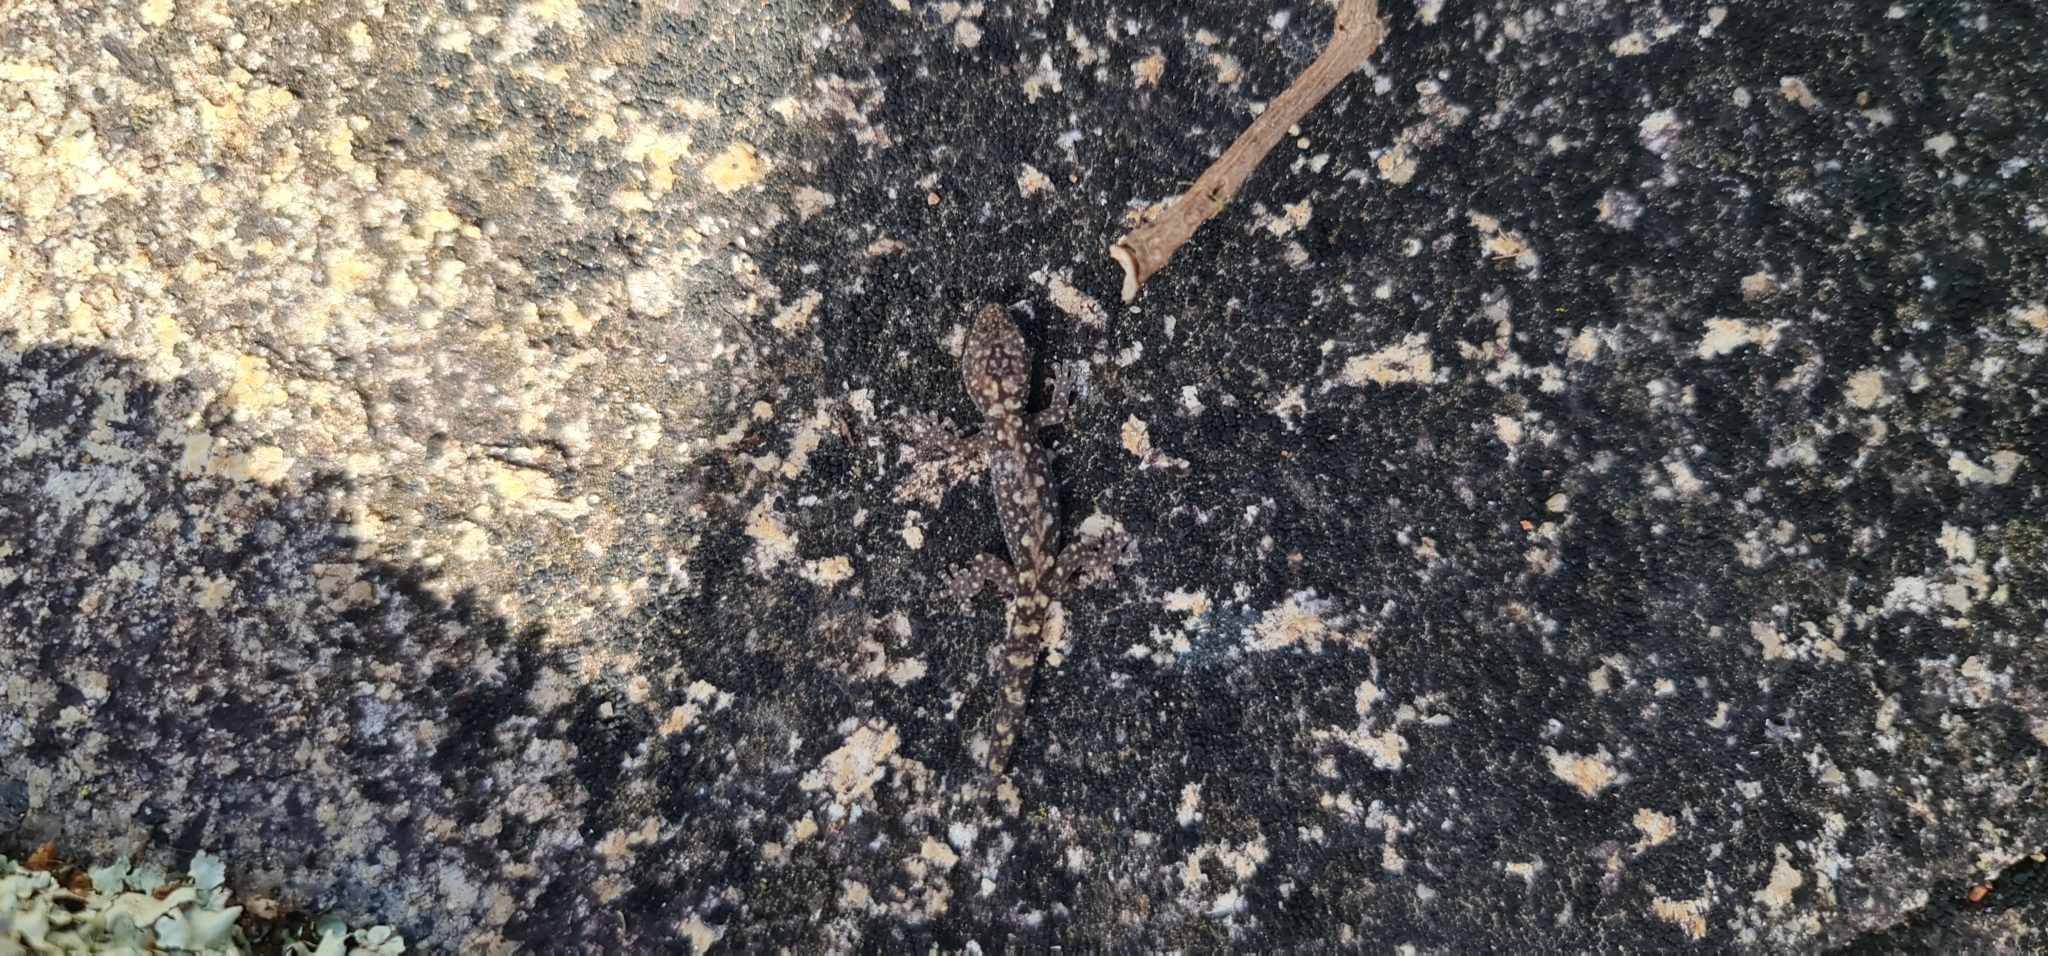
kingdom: Animalia
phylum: Chordata
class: Squamata
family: Diplodactylidae
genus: Amalosia
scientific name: Amalosia lesueurii
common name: Lesueur's gecko
